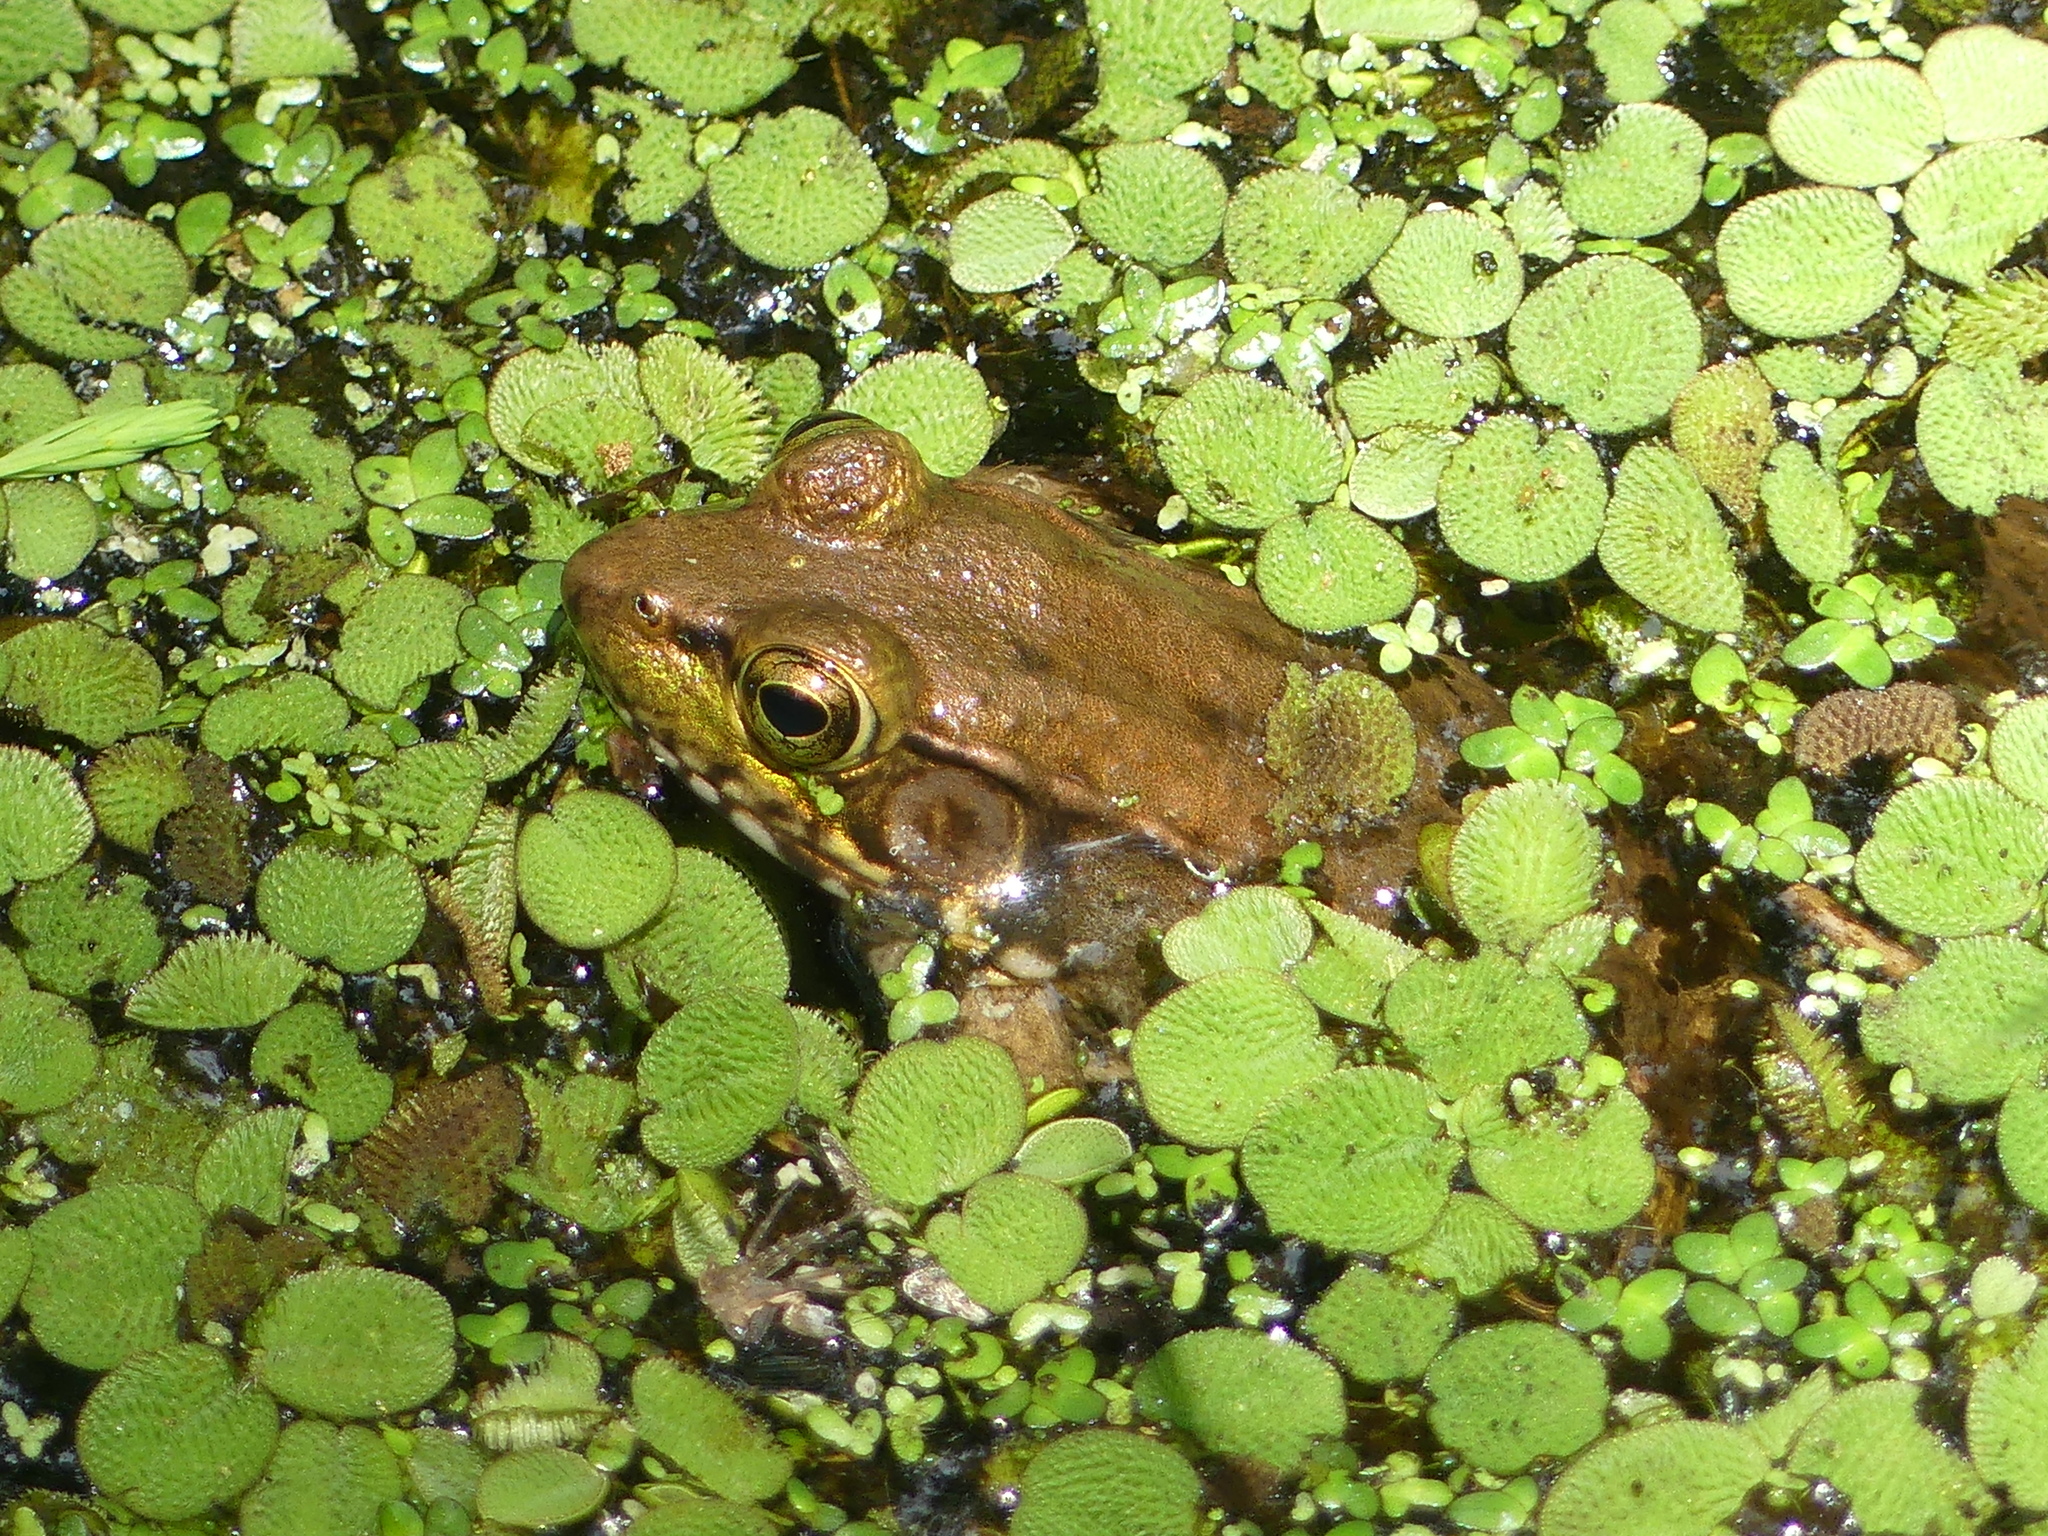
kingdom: Animalia
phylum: Chordata
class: Amphibia
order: Anura
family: Ranidae
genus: Lithobates
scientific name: Lithobates clamitans
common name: Green frog
